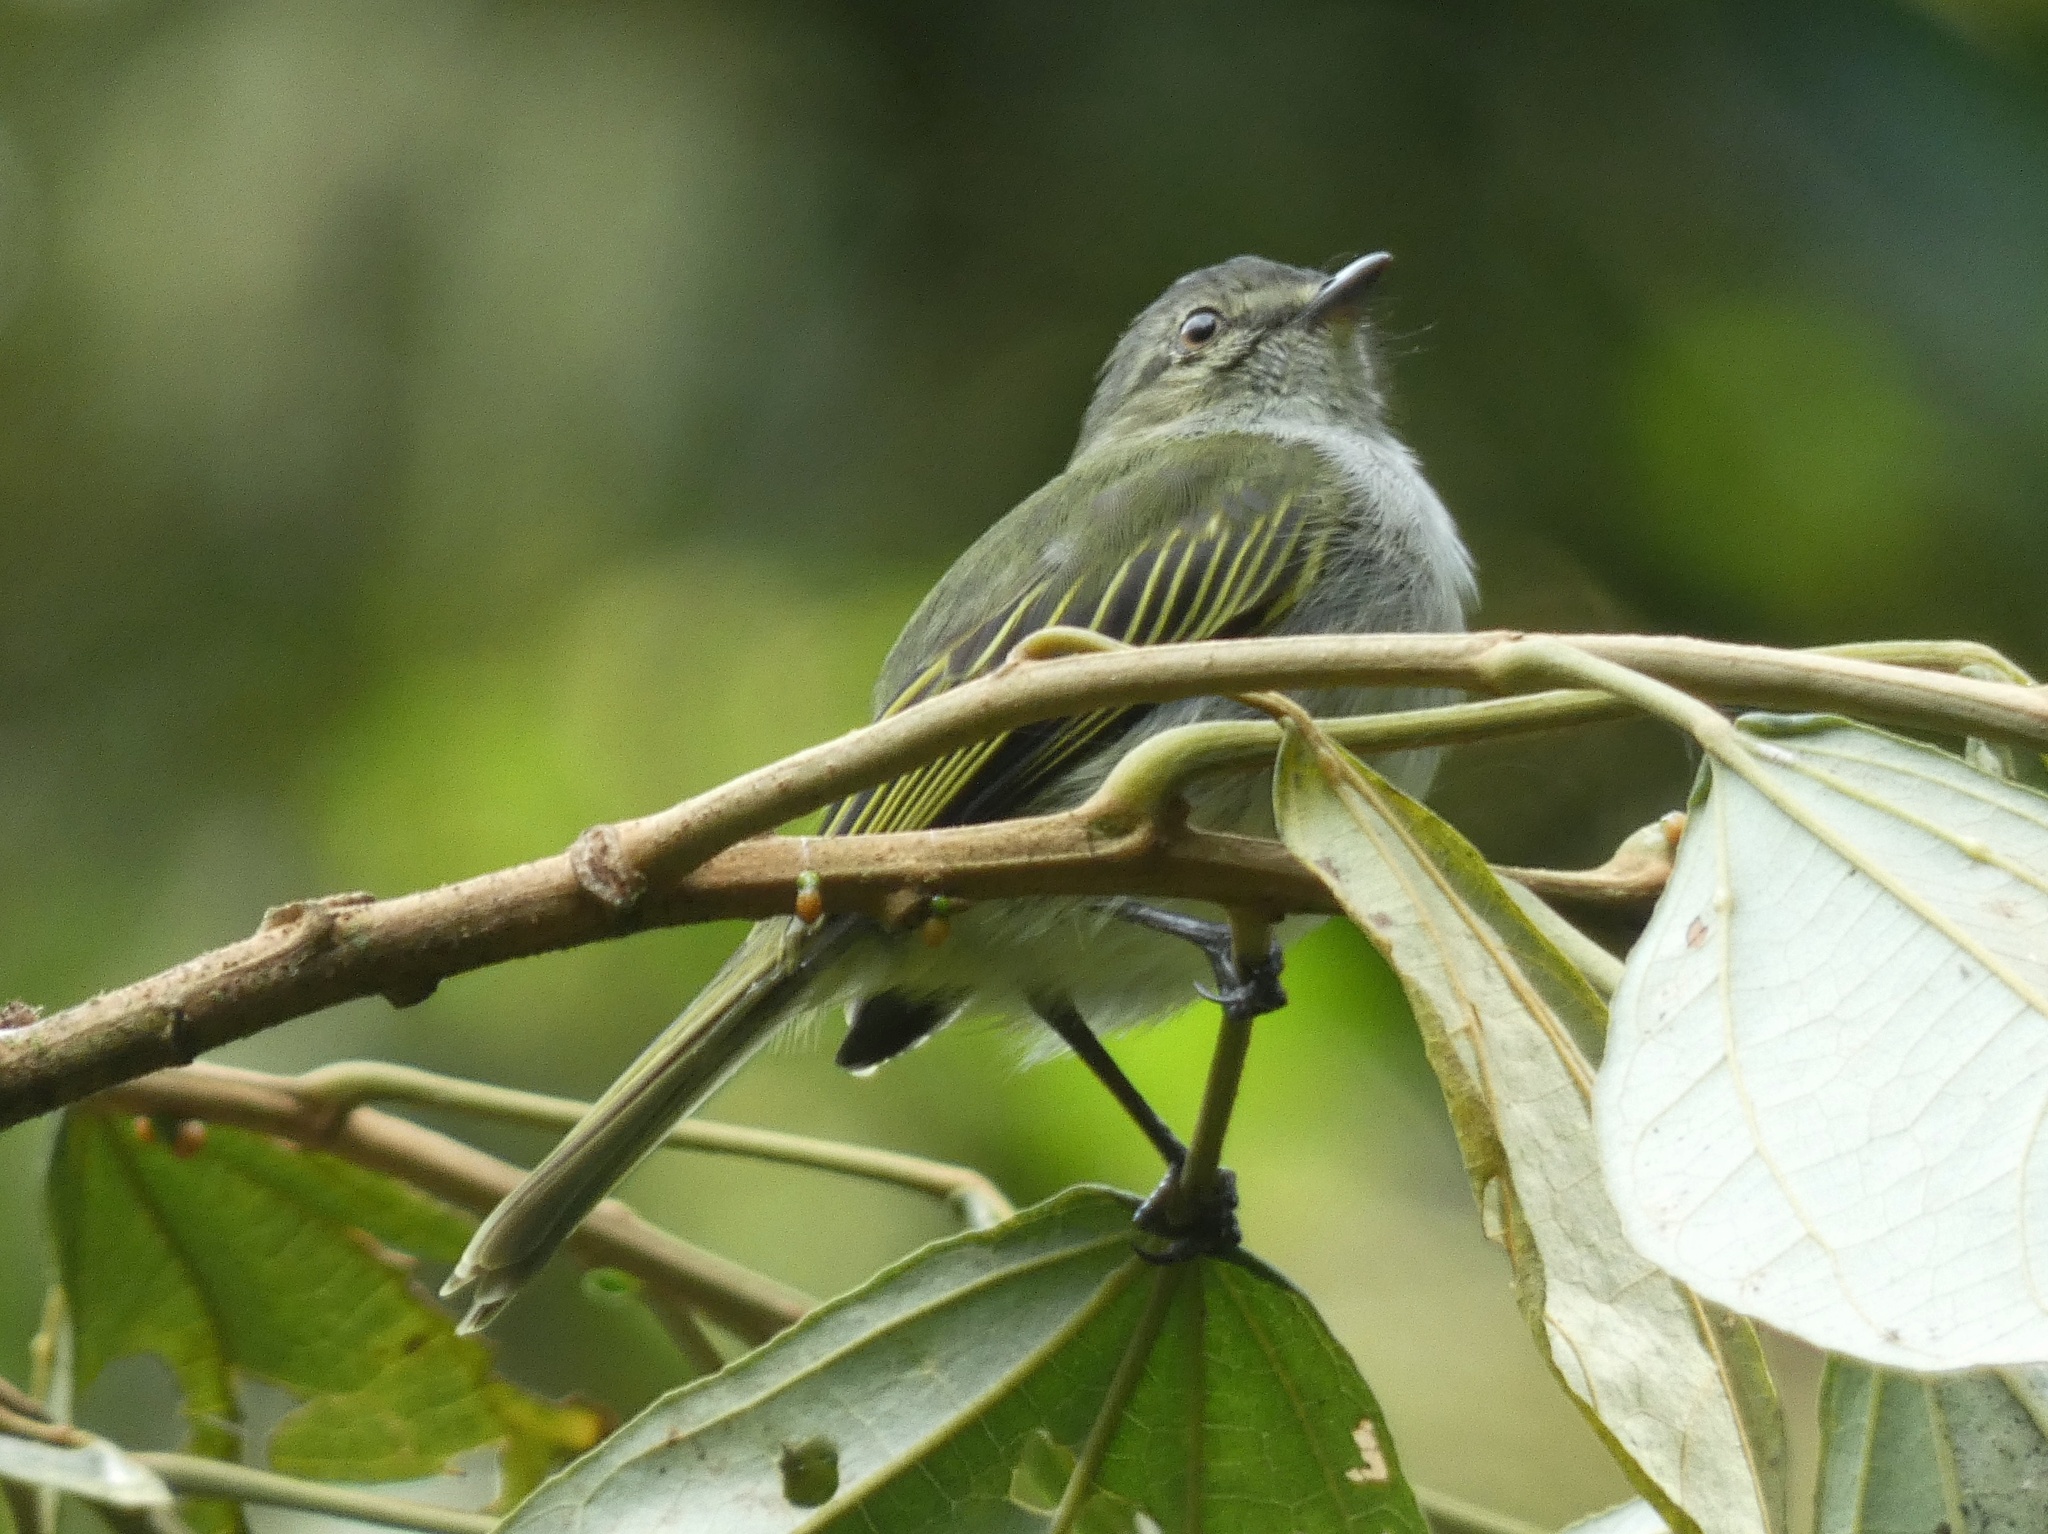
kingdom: Animalia
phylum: Chordata
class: Aves
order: Passeriformes
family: Tyrannidae
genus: Zimmerius
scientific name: Zimmerius vilissimus
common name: Paltry tyrannulet
